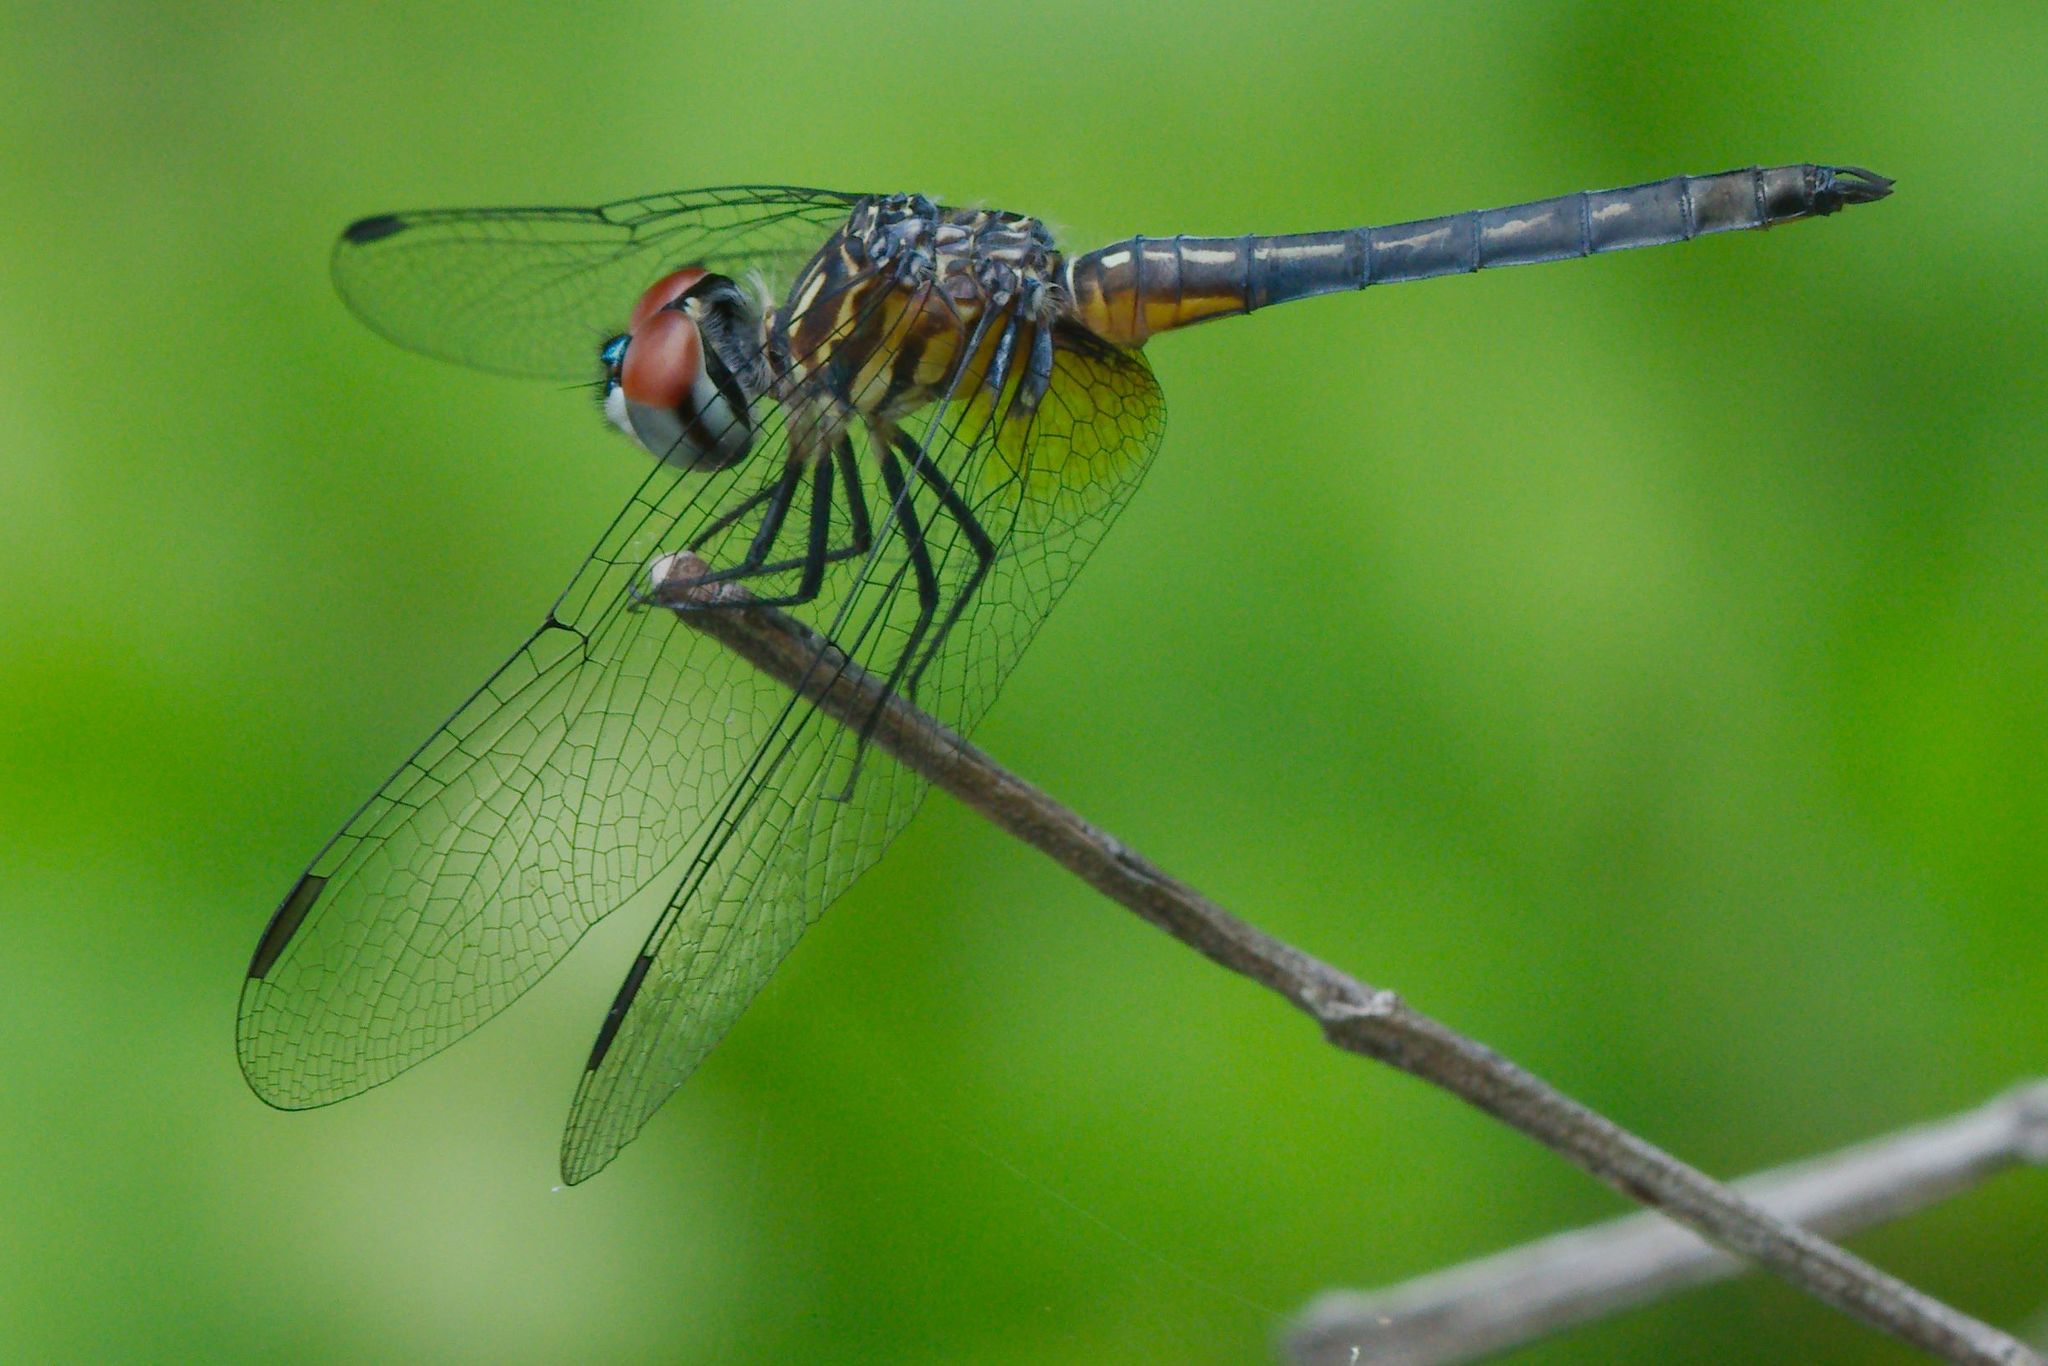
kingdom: Animalia
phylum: Arthropoda
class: Insecta
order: Odonata
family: Libellulidae
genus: Pachydiplax
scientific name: Pachydiplax longipennis
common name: Blue dasher
